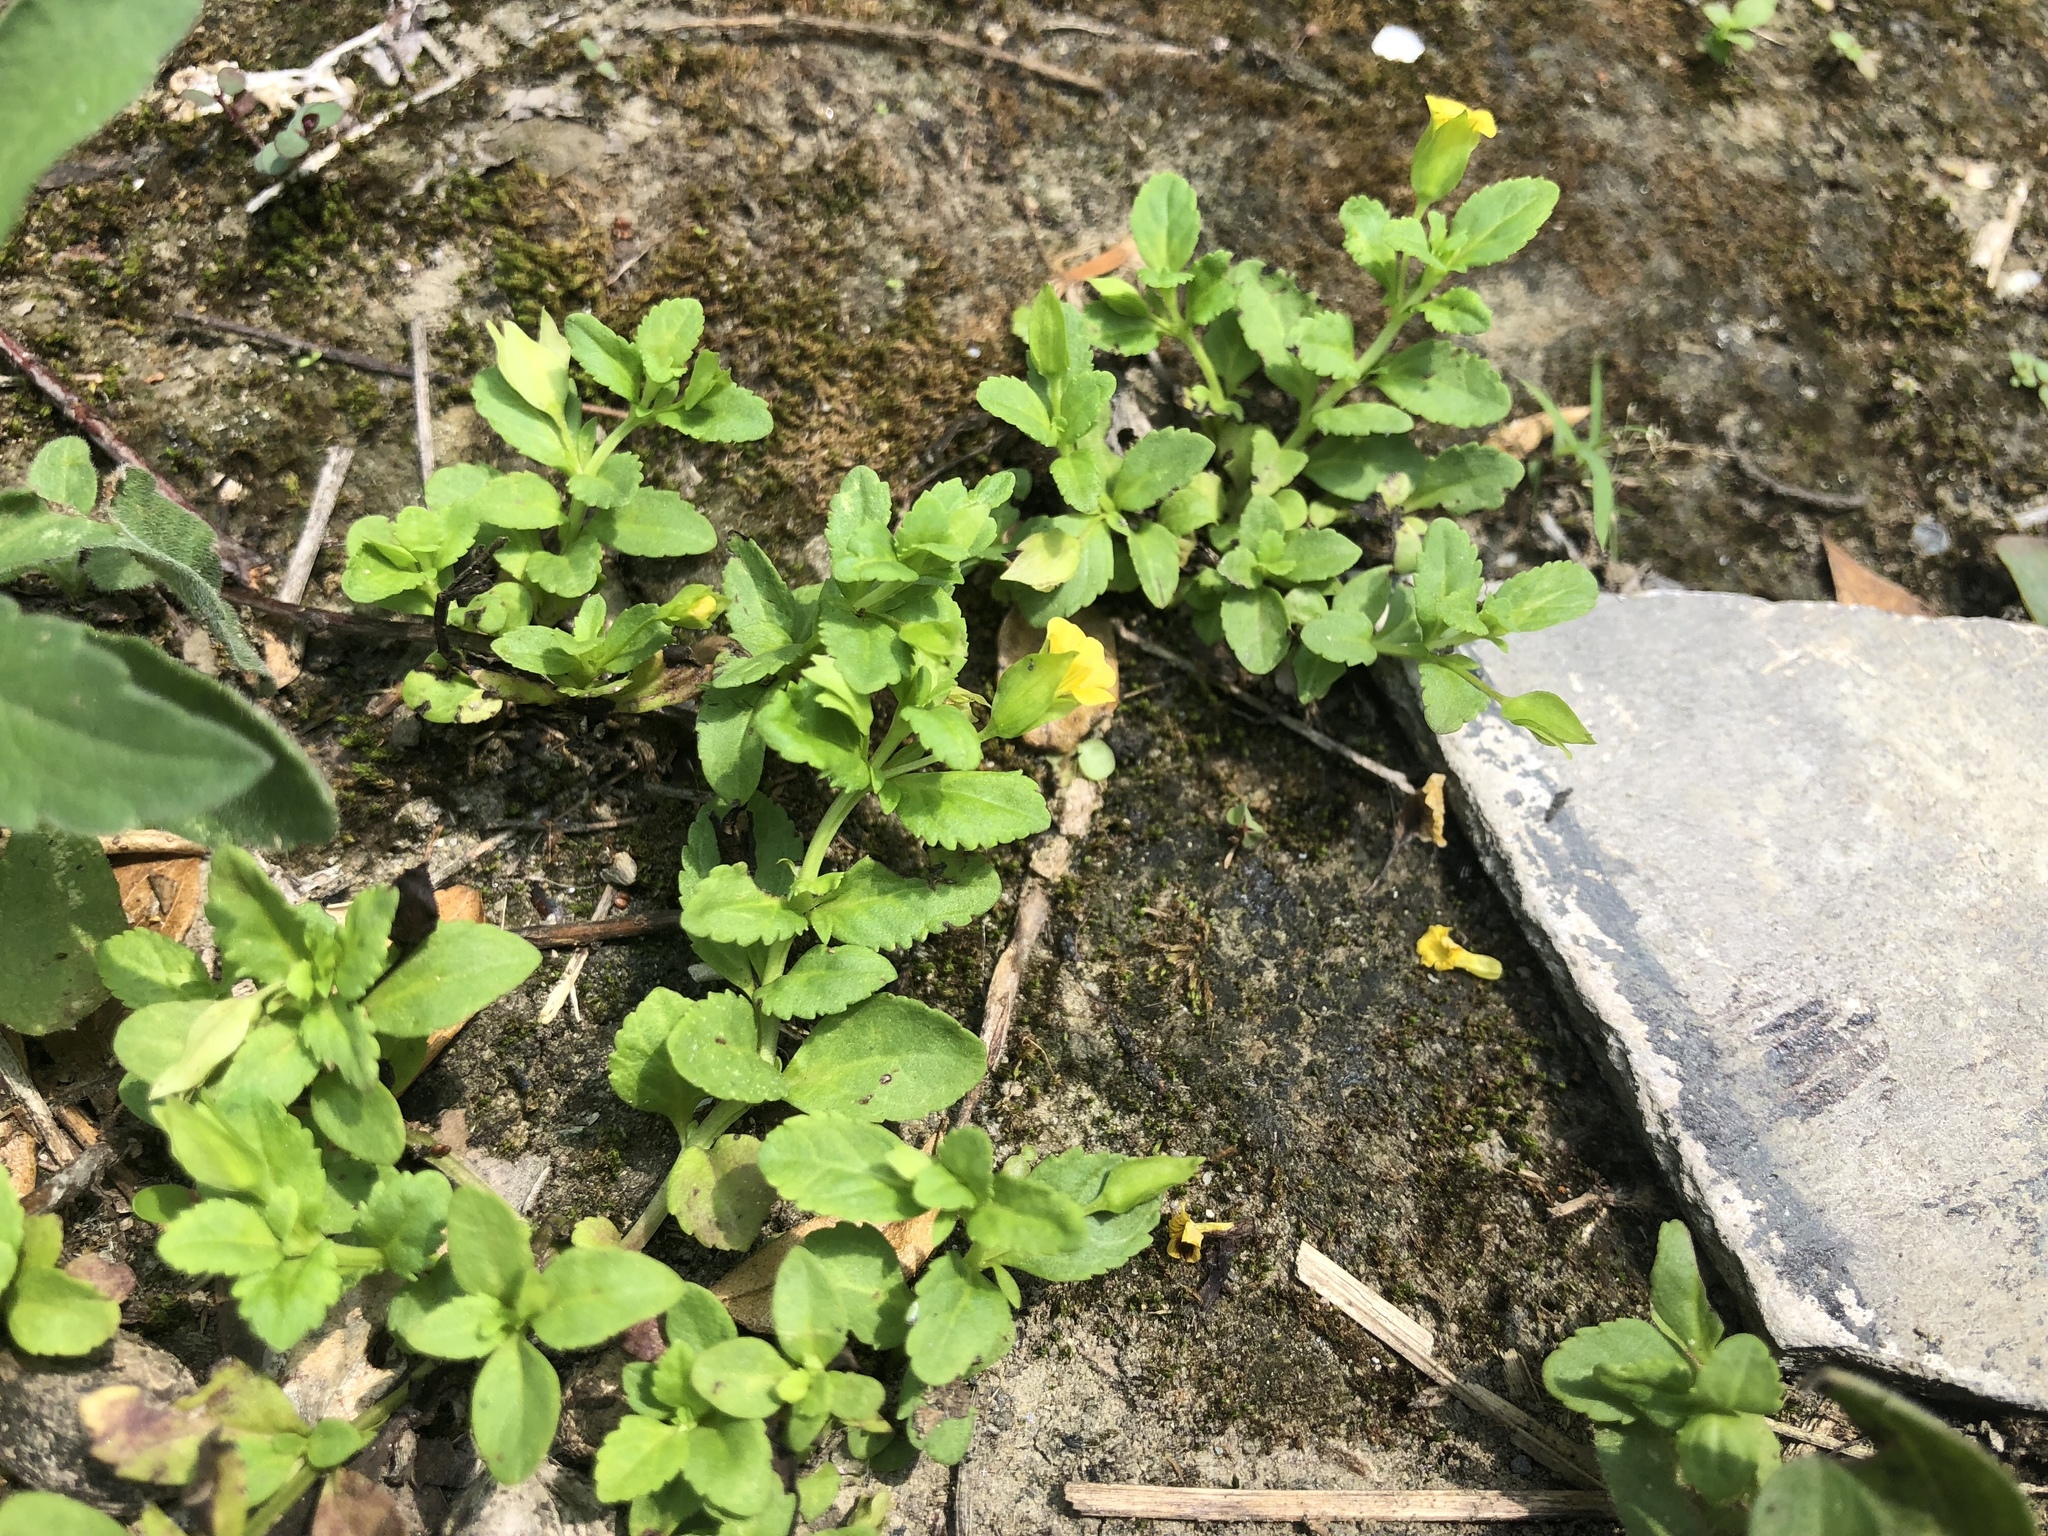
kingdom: Plantae
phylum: Tracheophyta
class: Magnoliopsida
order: Lamiales
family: Plantaginaceae
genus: Mecardonia
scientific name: Mecardonia procumbens
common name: Baby jump-up
